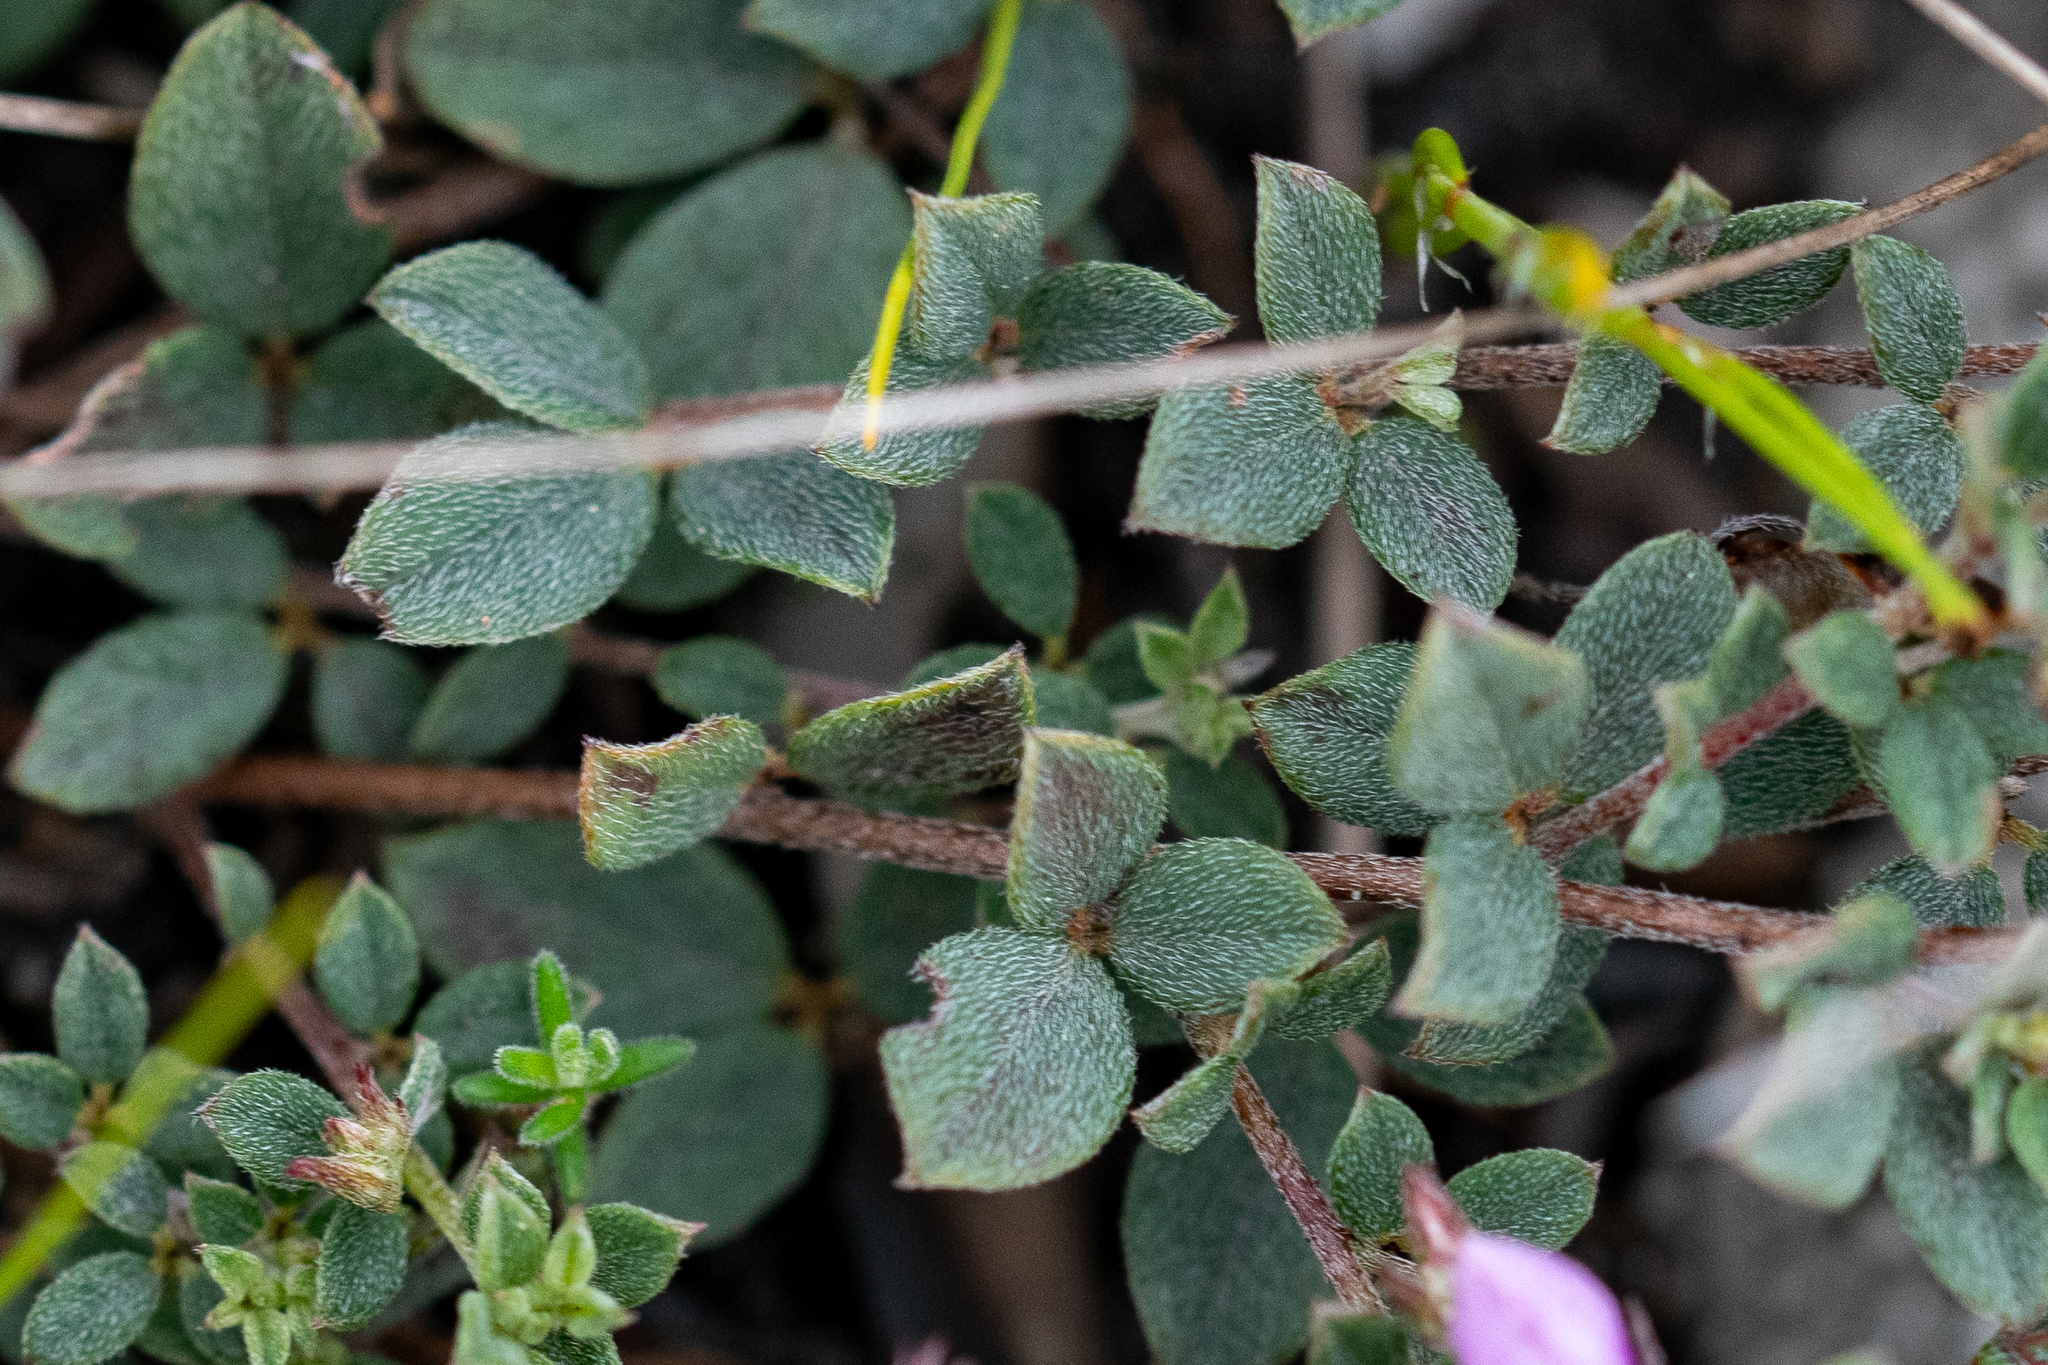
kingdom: Plantae
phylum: Tracheophyta
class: Magnoliopsida
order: Fabales
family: Fabaceae
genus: Indigofera
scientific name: Indigofera sarmentosa
